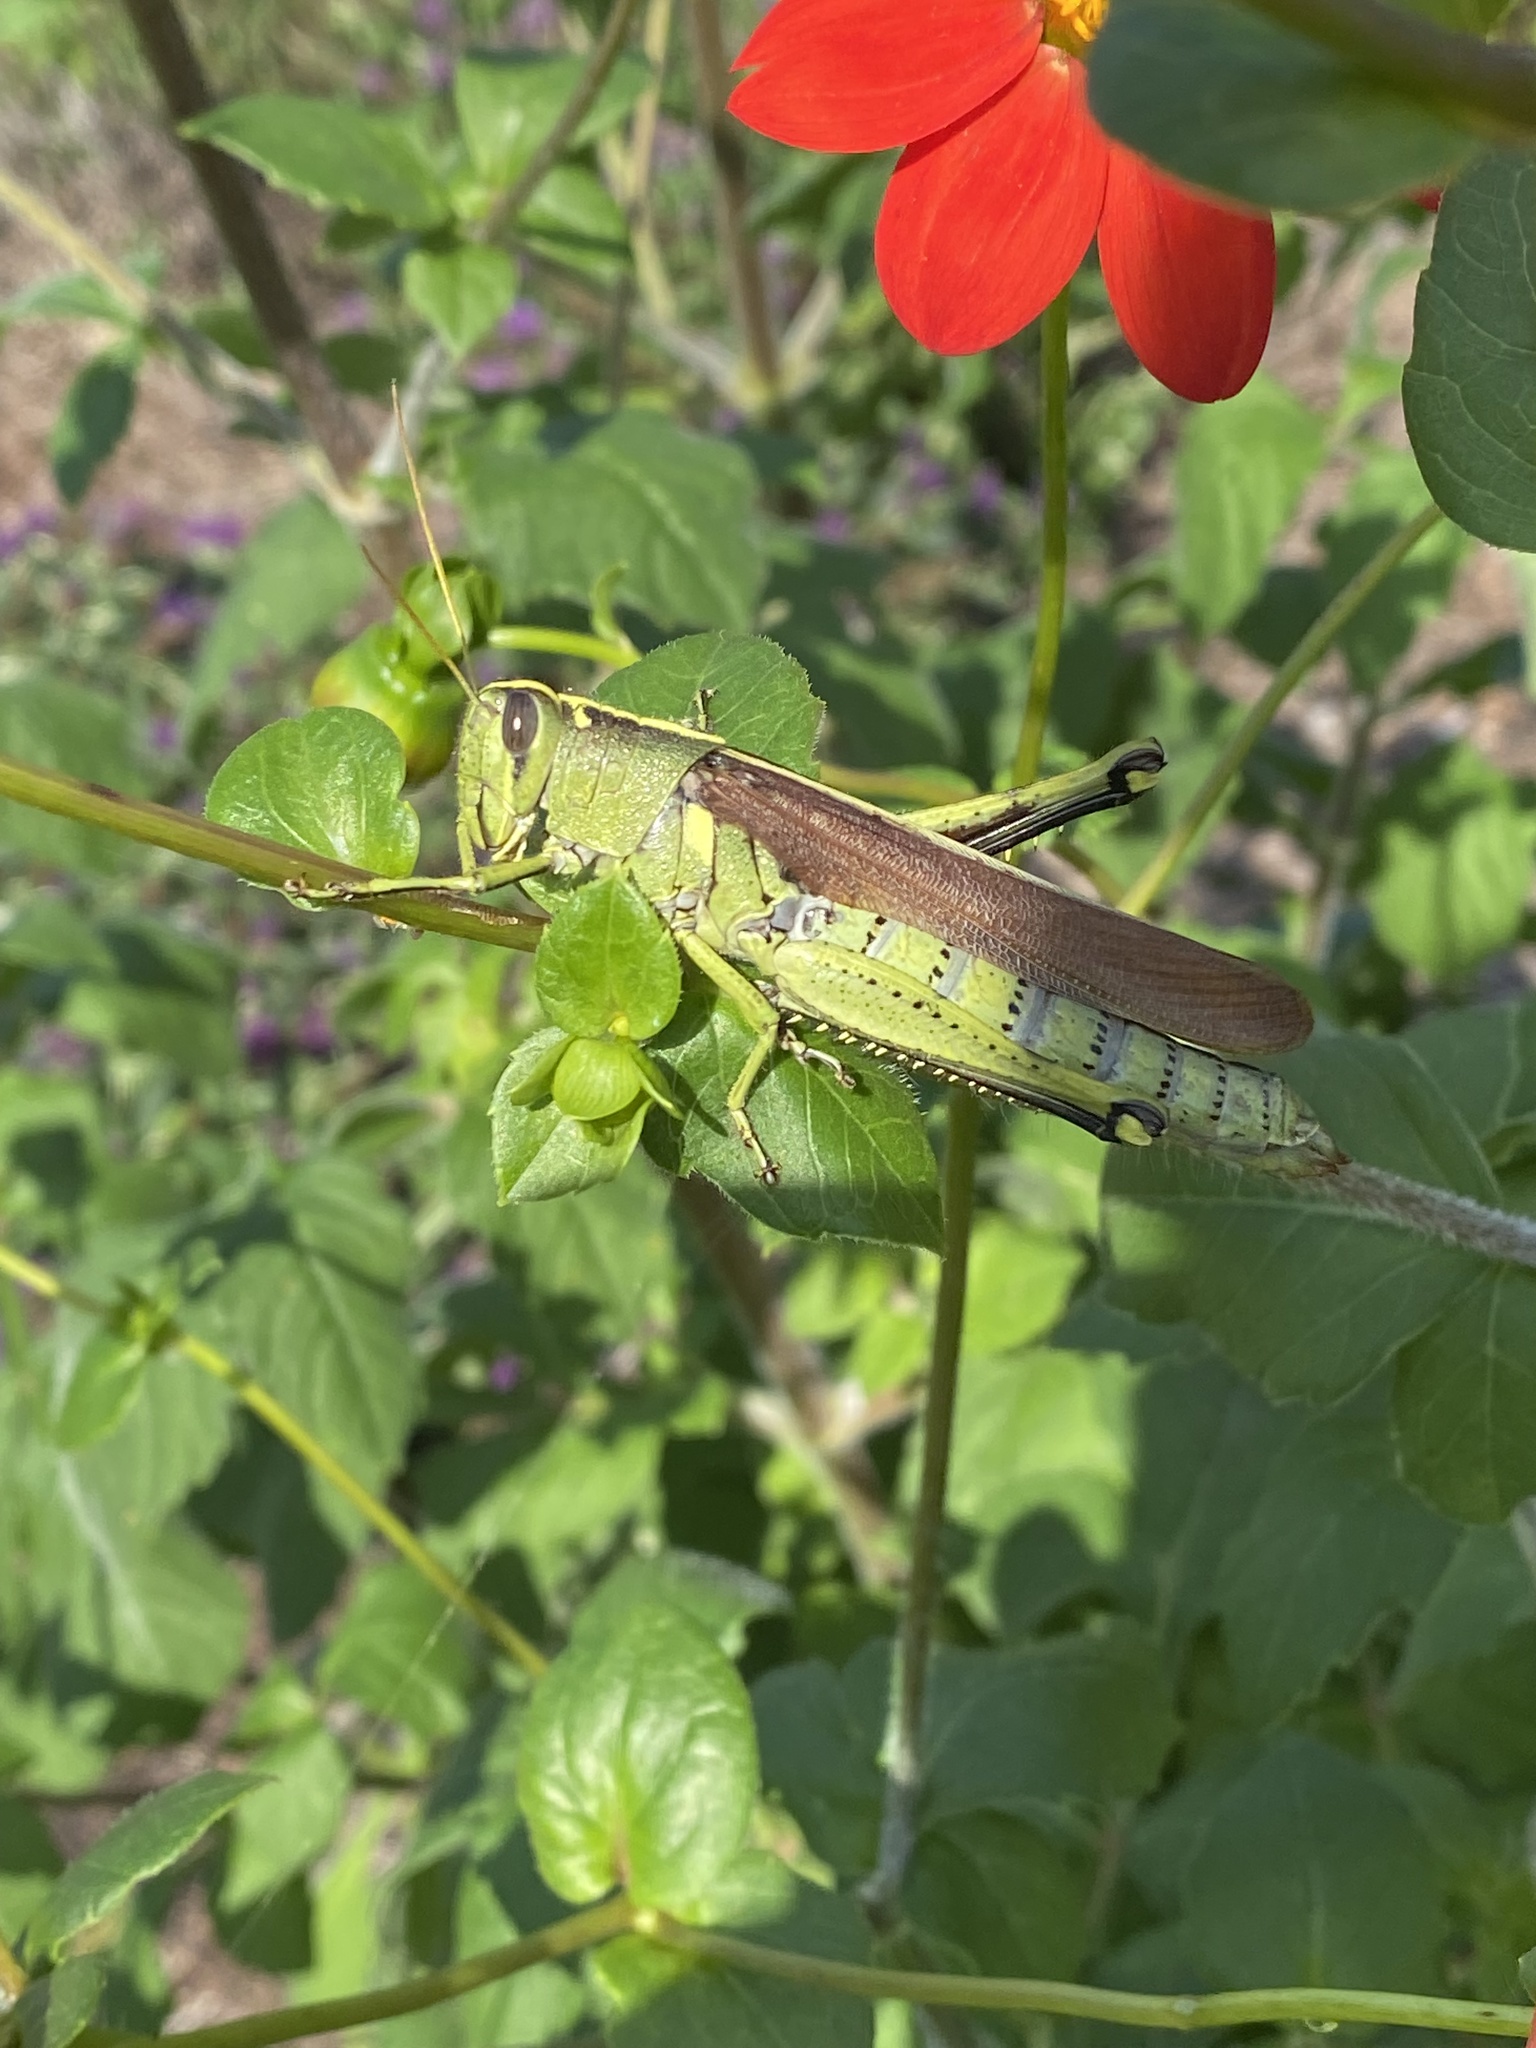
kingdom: Animalia
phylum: Arthropoda
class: Insecta
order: Orthoptera
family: Acrididae
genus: Schistocerca
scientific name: Schistocerca obscura
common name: Obscure bird grasshopper
